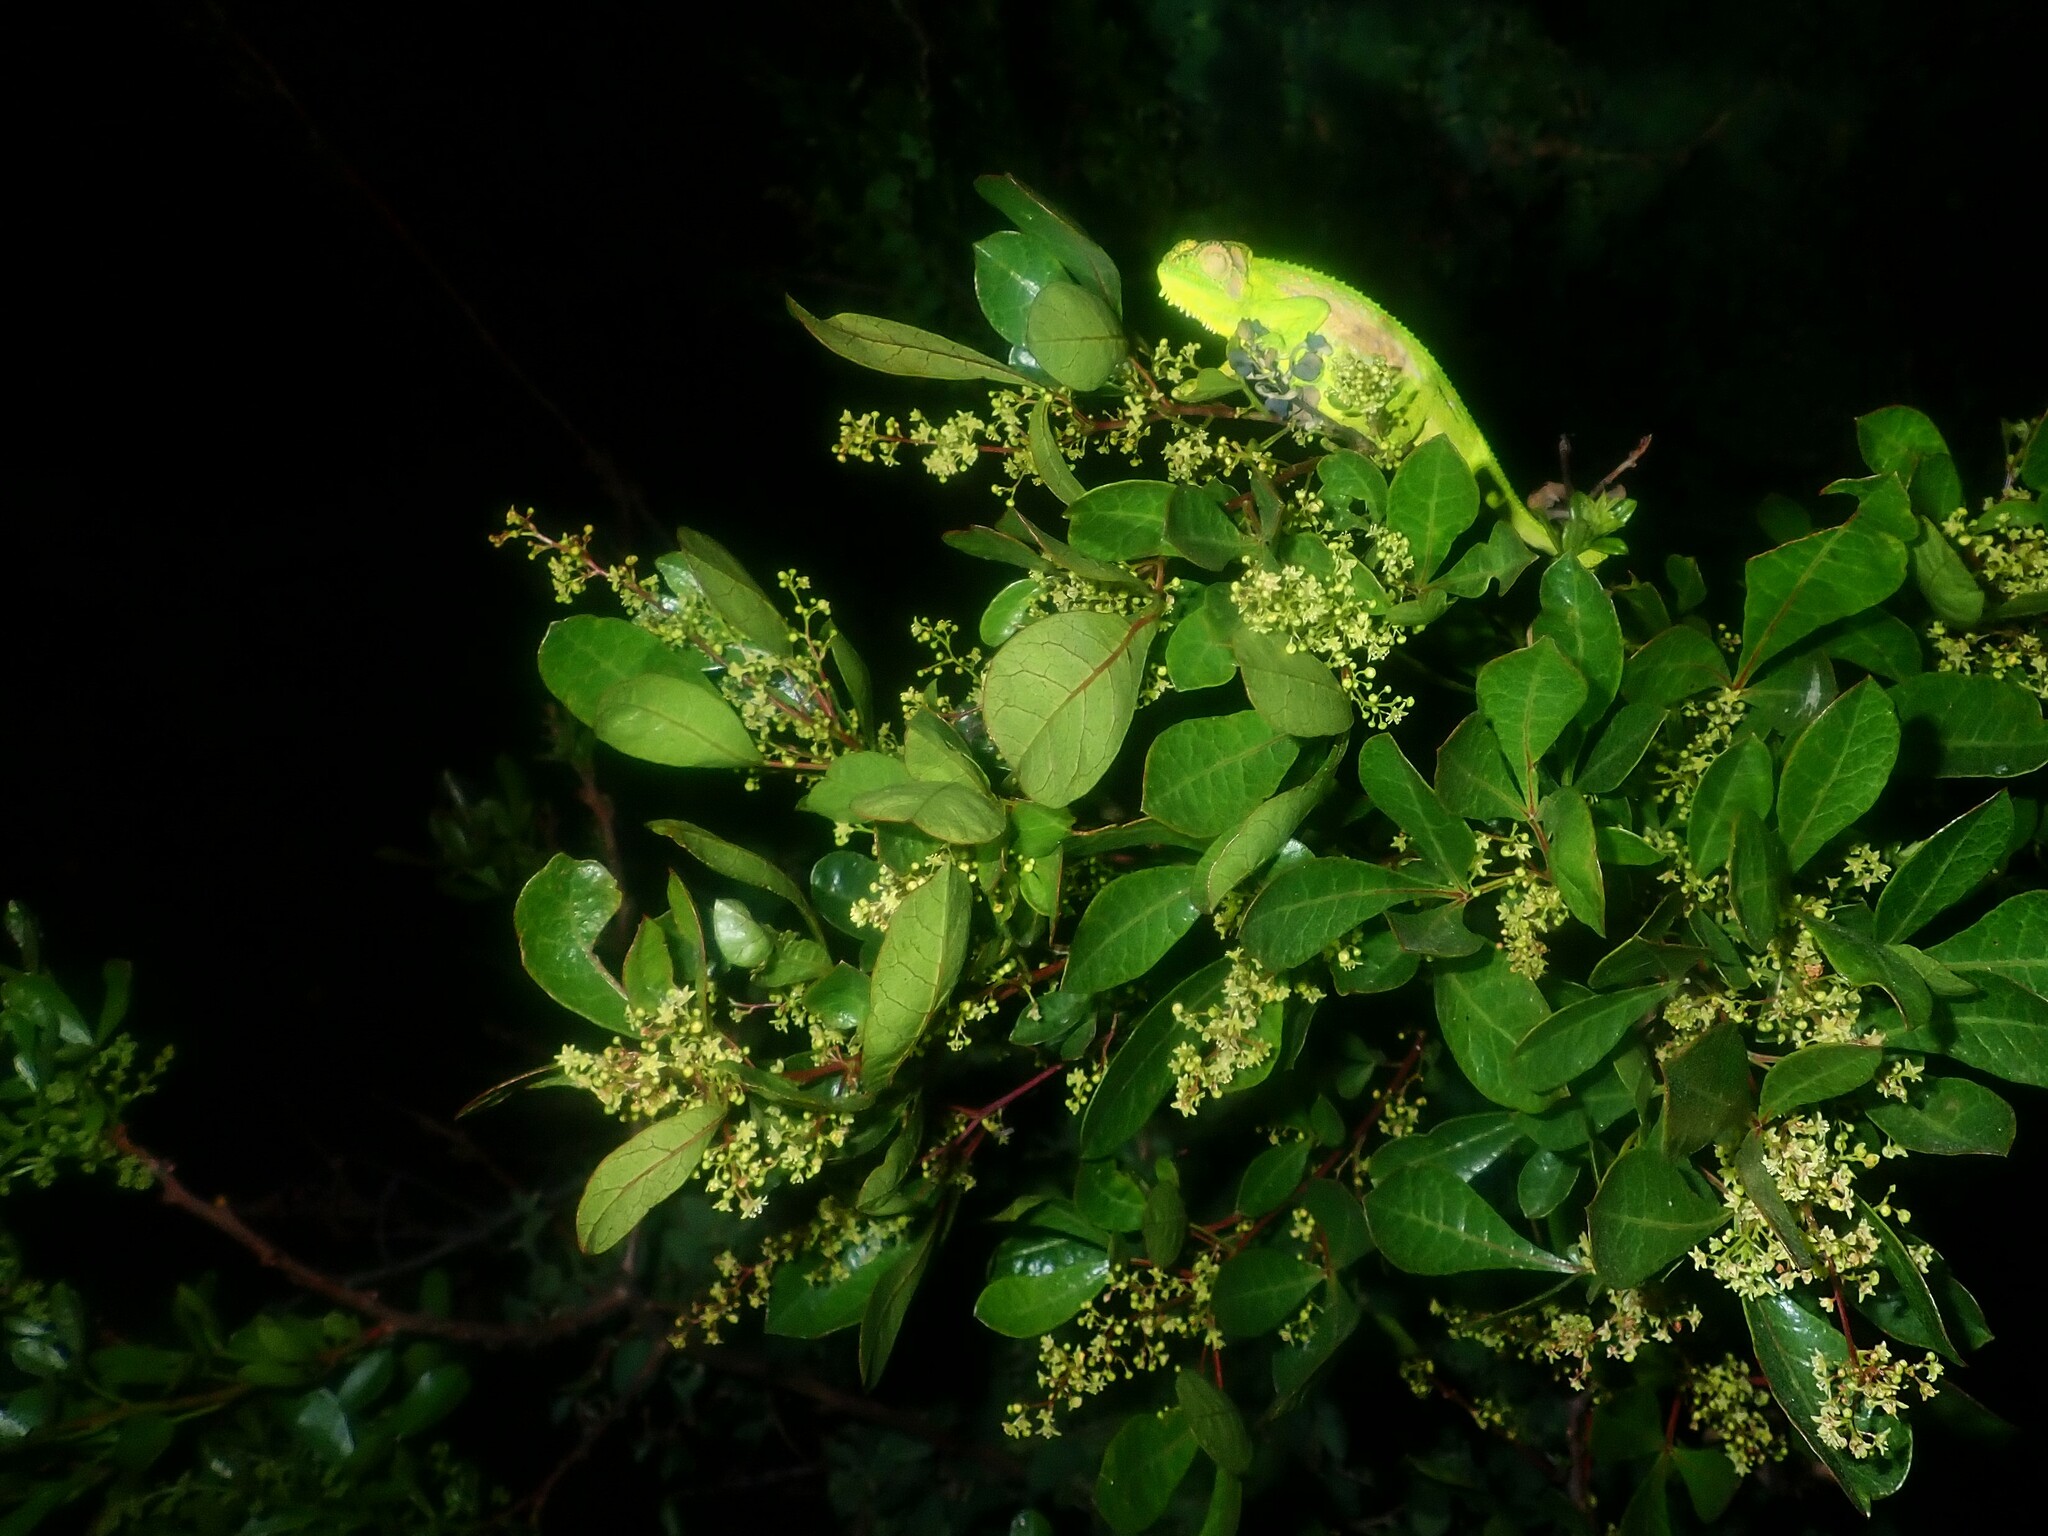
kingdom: Animalia
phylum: Chordata
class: Squamata
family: Chamaeleonidae
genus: Bradypodion
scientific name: Bradypodion pumilum
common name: Cape dwarf chameleon
